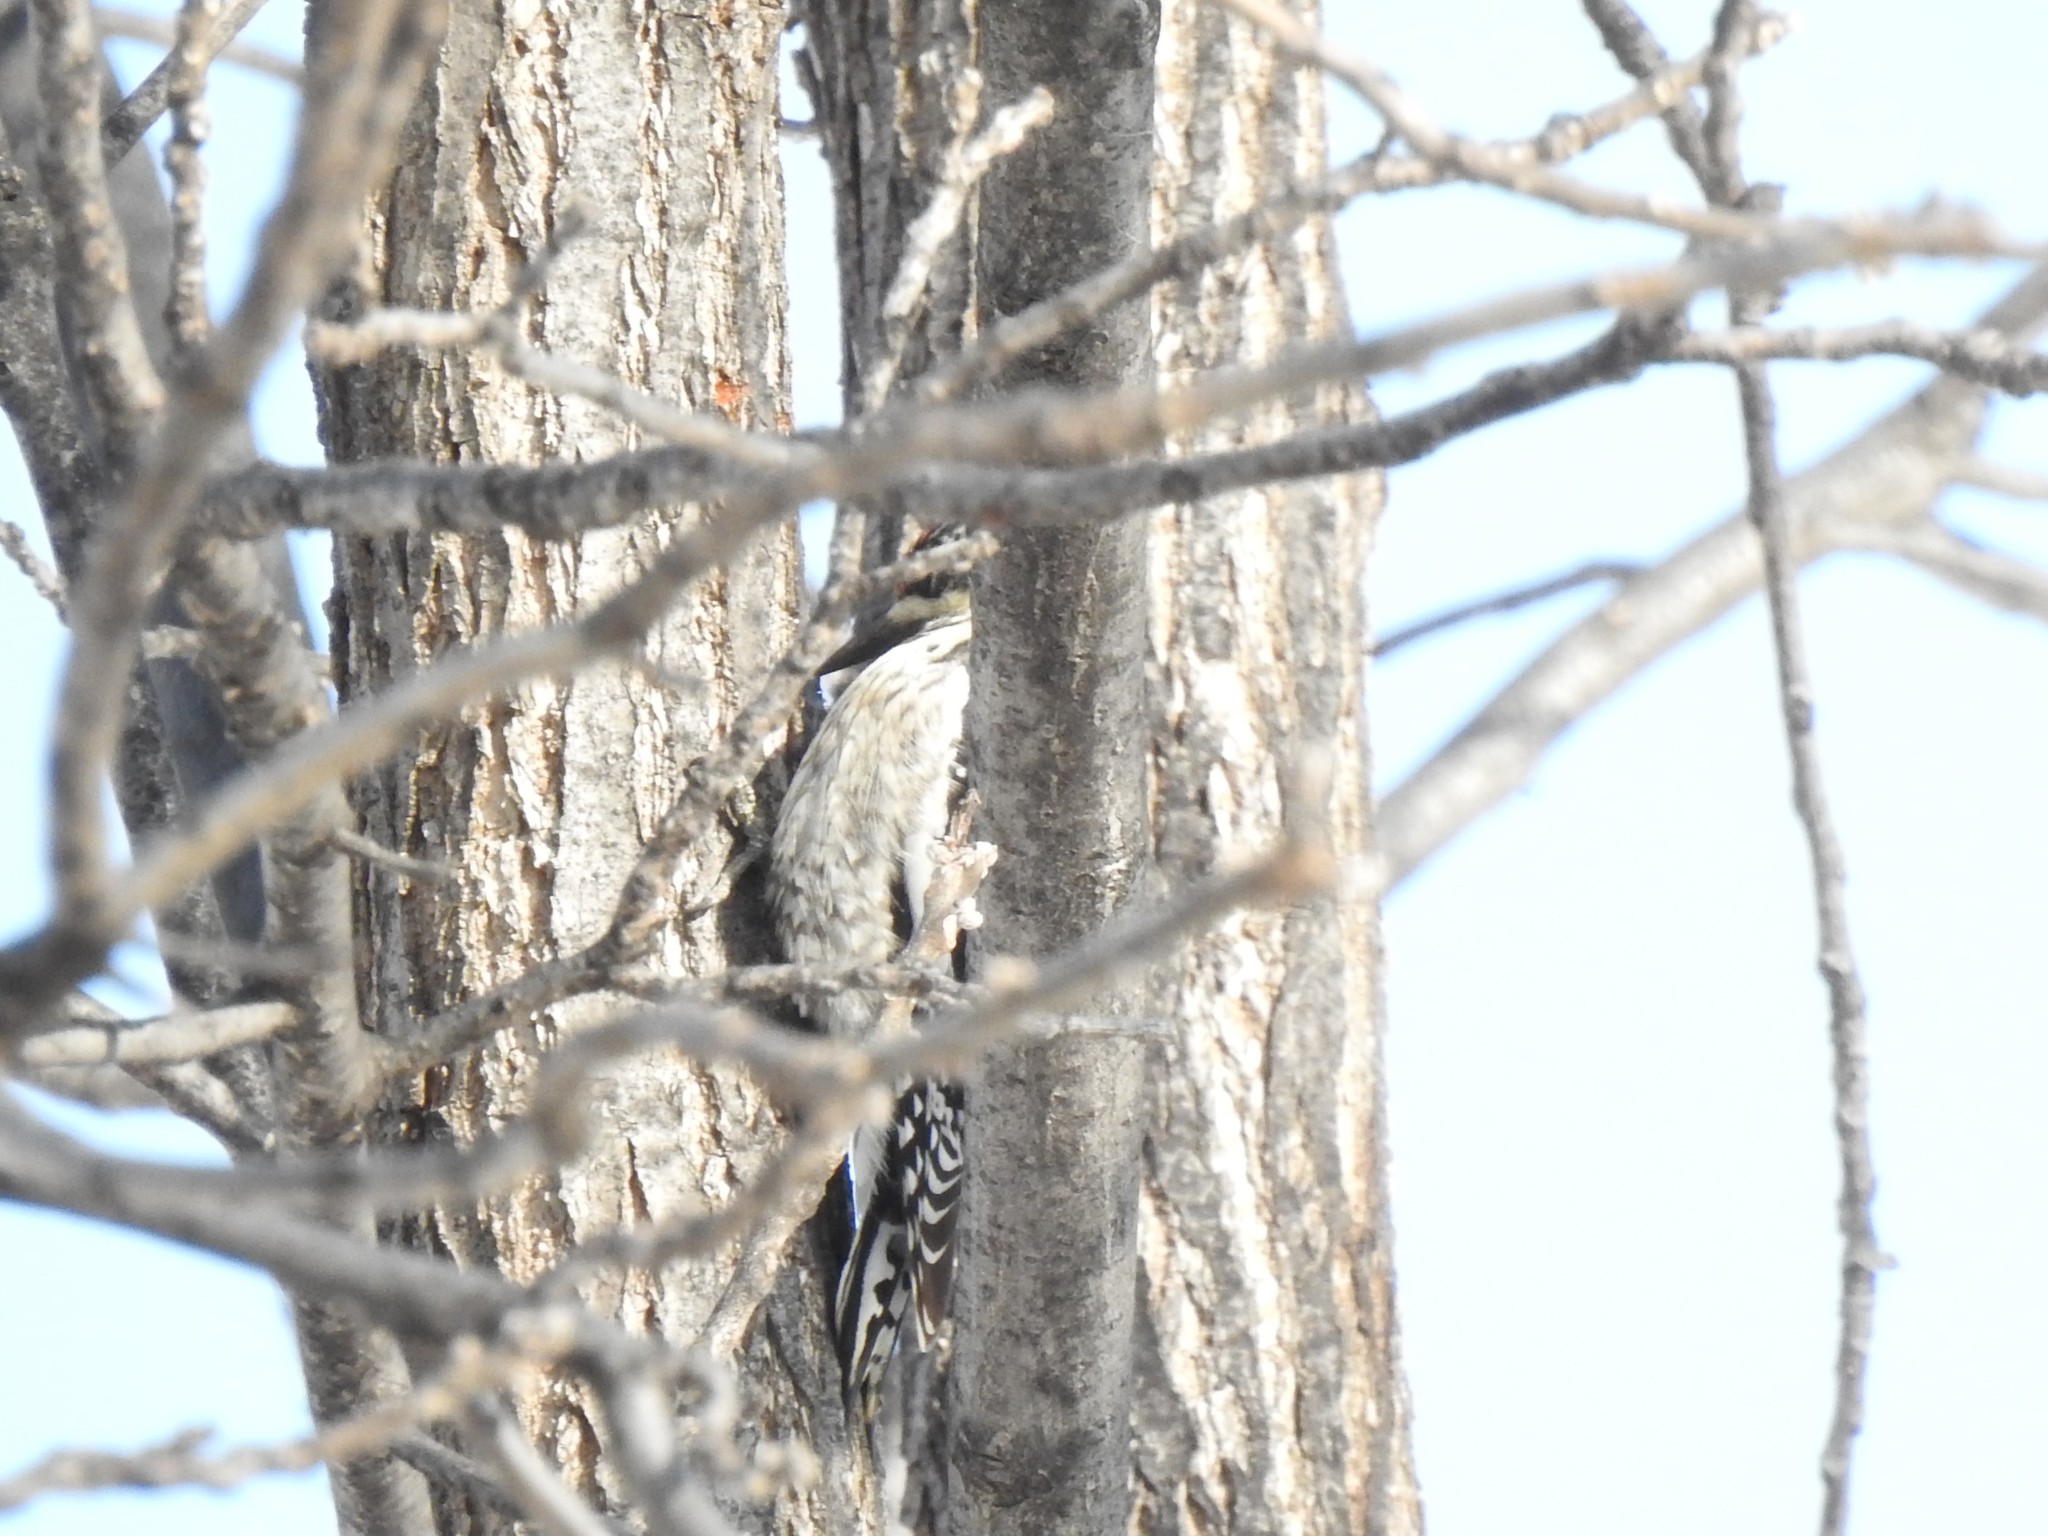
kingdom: Animalia
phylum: Chordata
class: Aves
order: Piciformes
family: Picidae
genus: Sphyrapicus
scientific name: Sphyrapicus varius
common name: Yellow-bellied sapsucker
